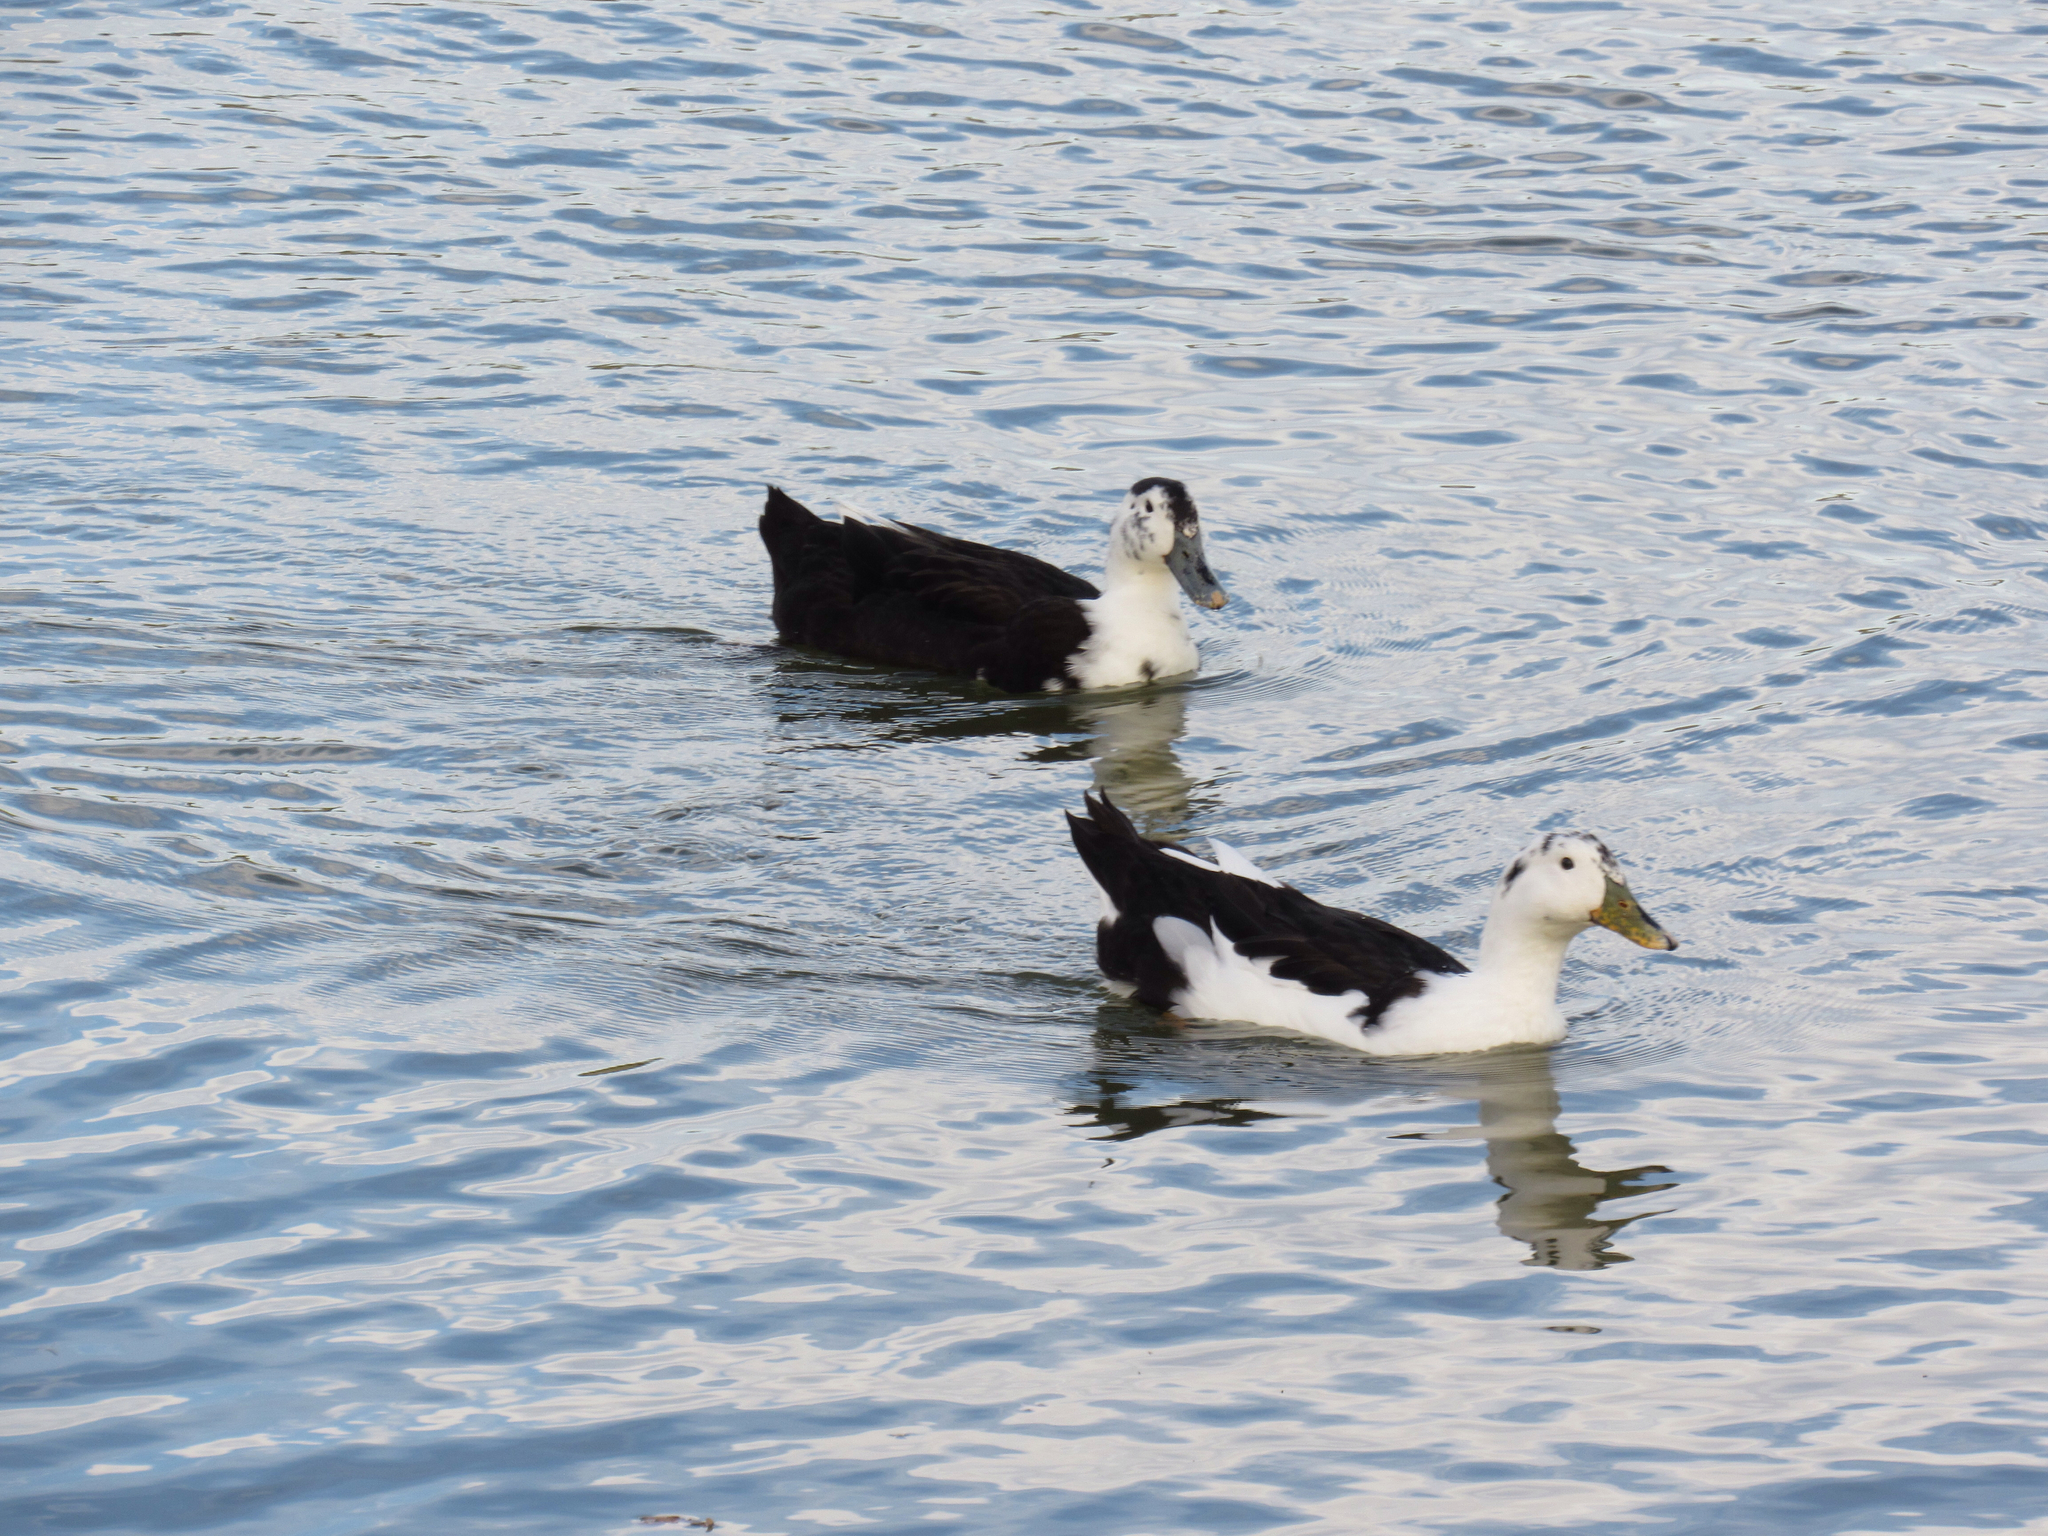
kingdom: Animalia
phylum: Chordata
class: Aves
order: Anseriformes
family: Anatidae
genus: Anas
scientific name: Anas platyrhynchos
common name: Mallard
